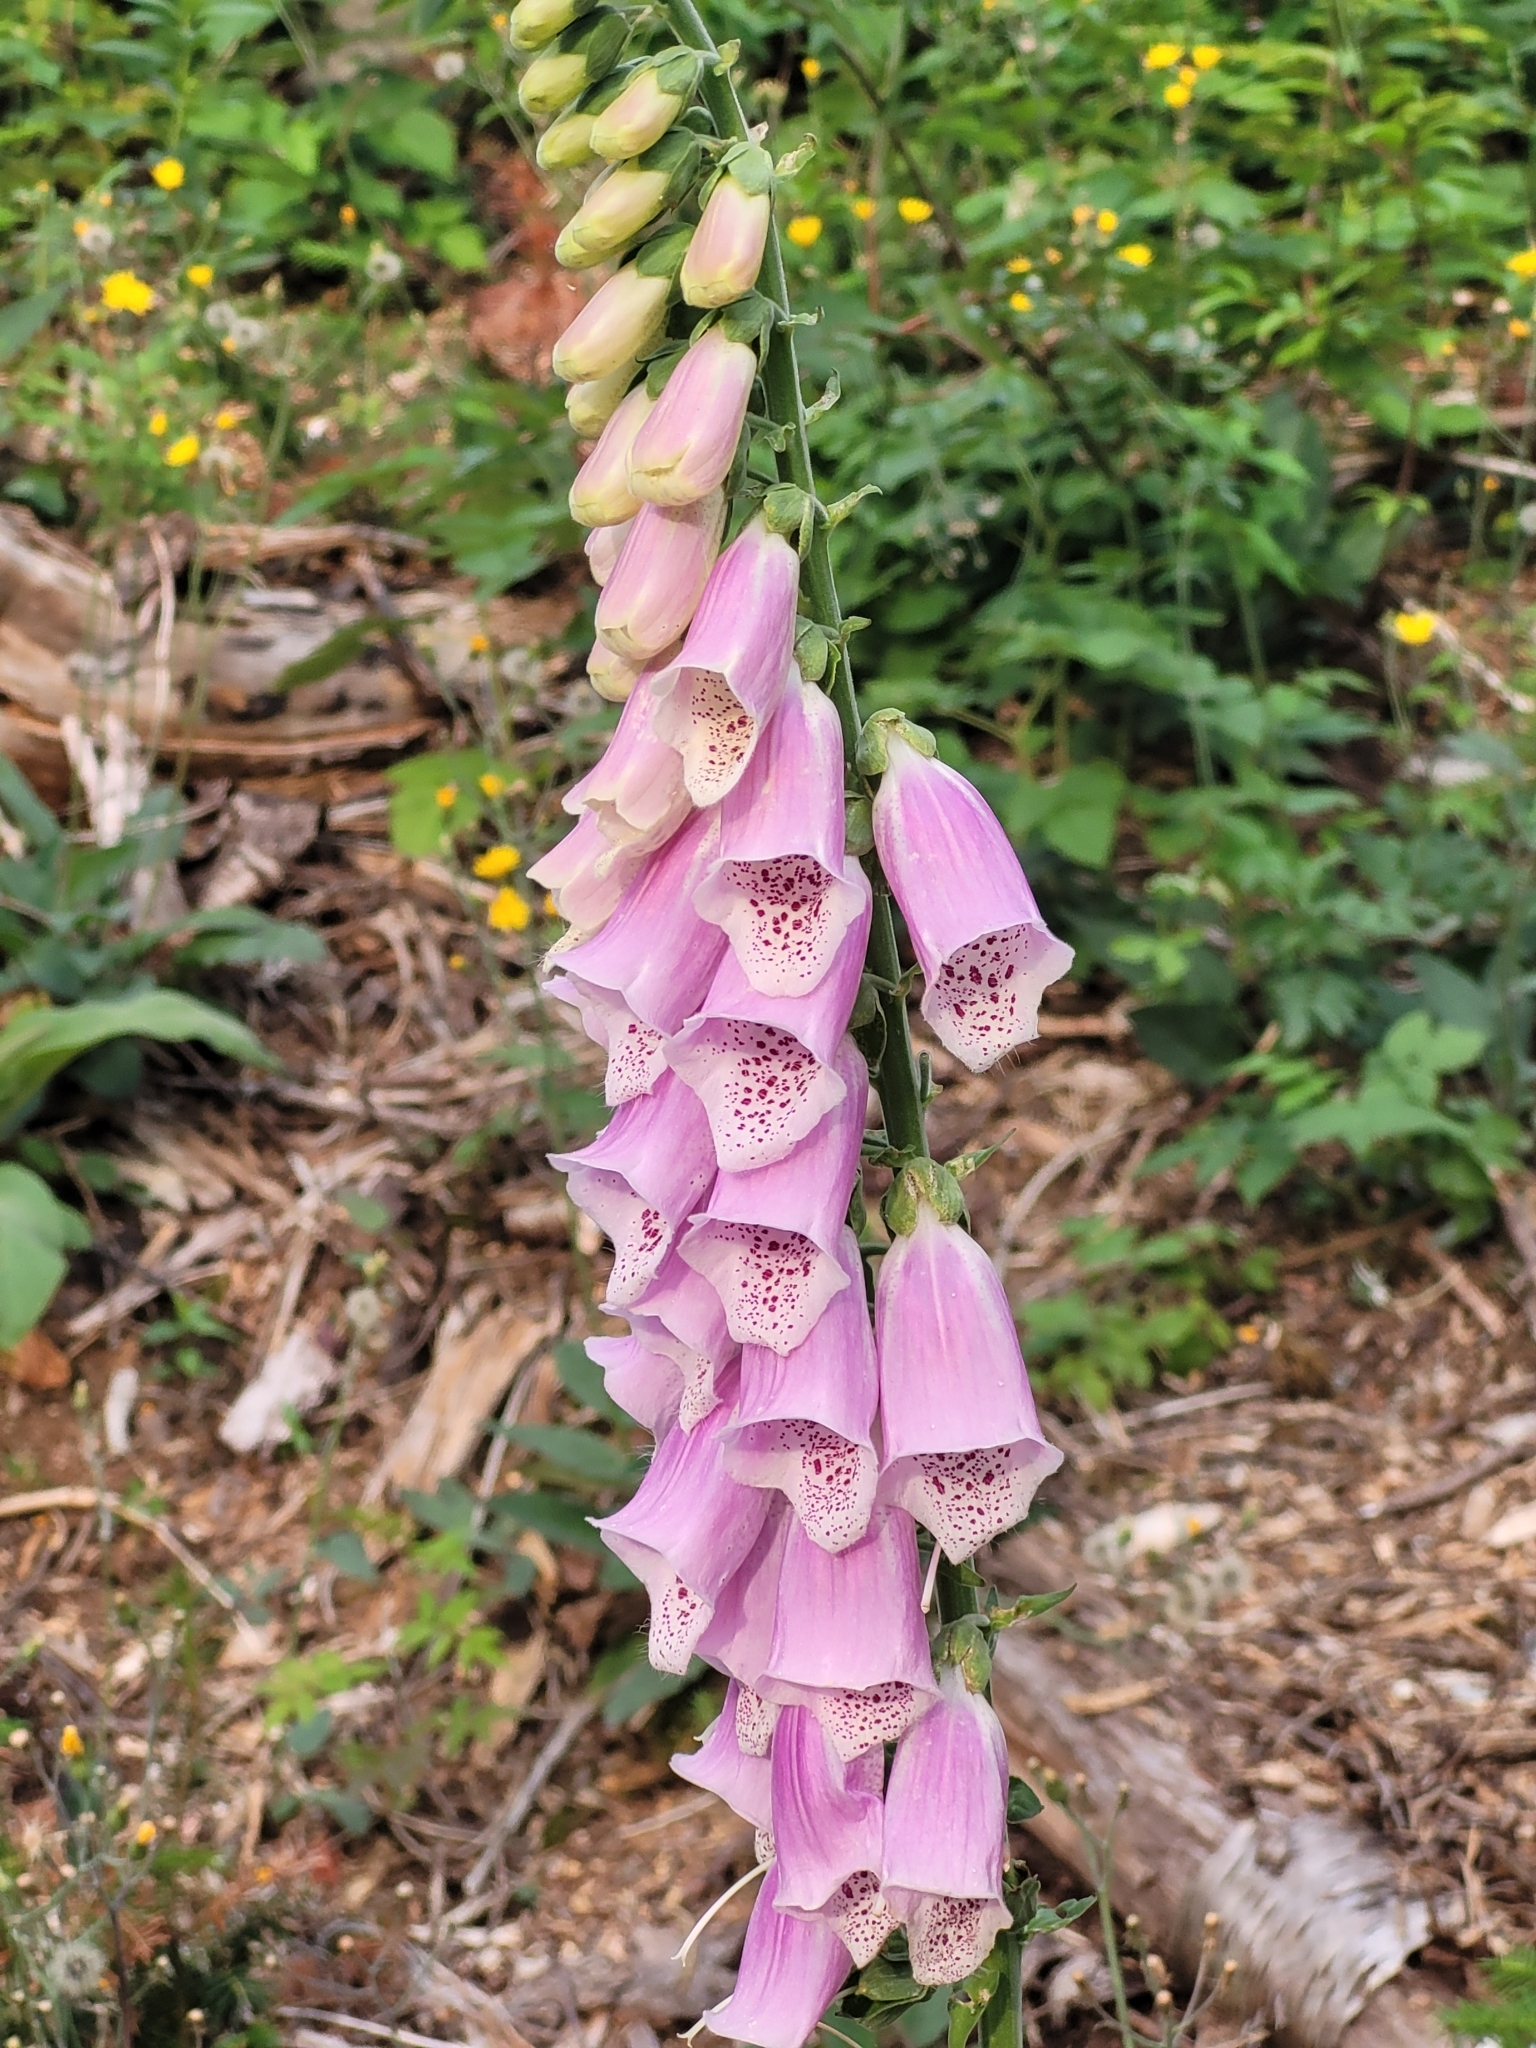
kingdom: Plantae
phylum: Tracheophyta
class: Magnoliopsida
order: Lamiales
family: Plantaginaceae
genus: Digitalis
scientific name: Digitalis purpurea
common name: Foxglove
